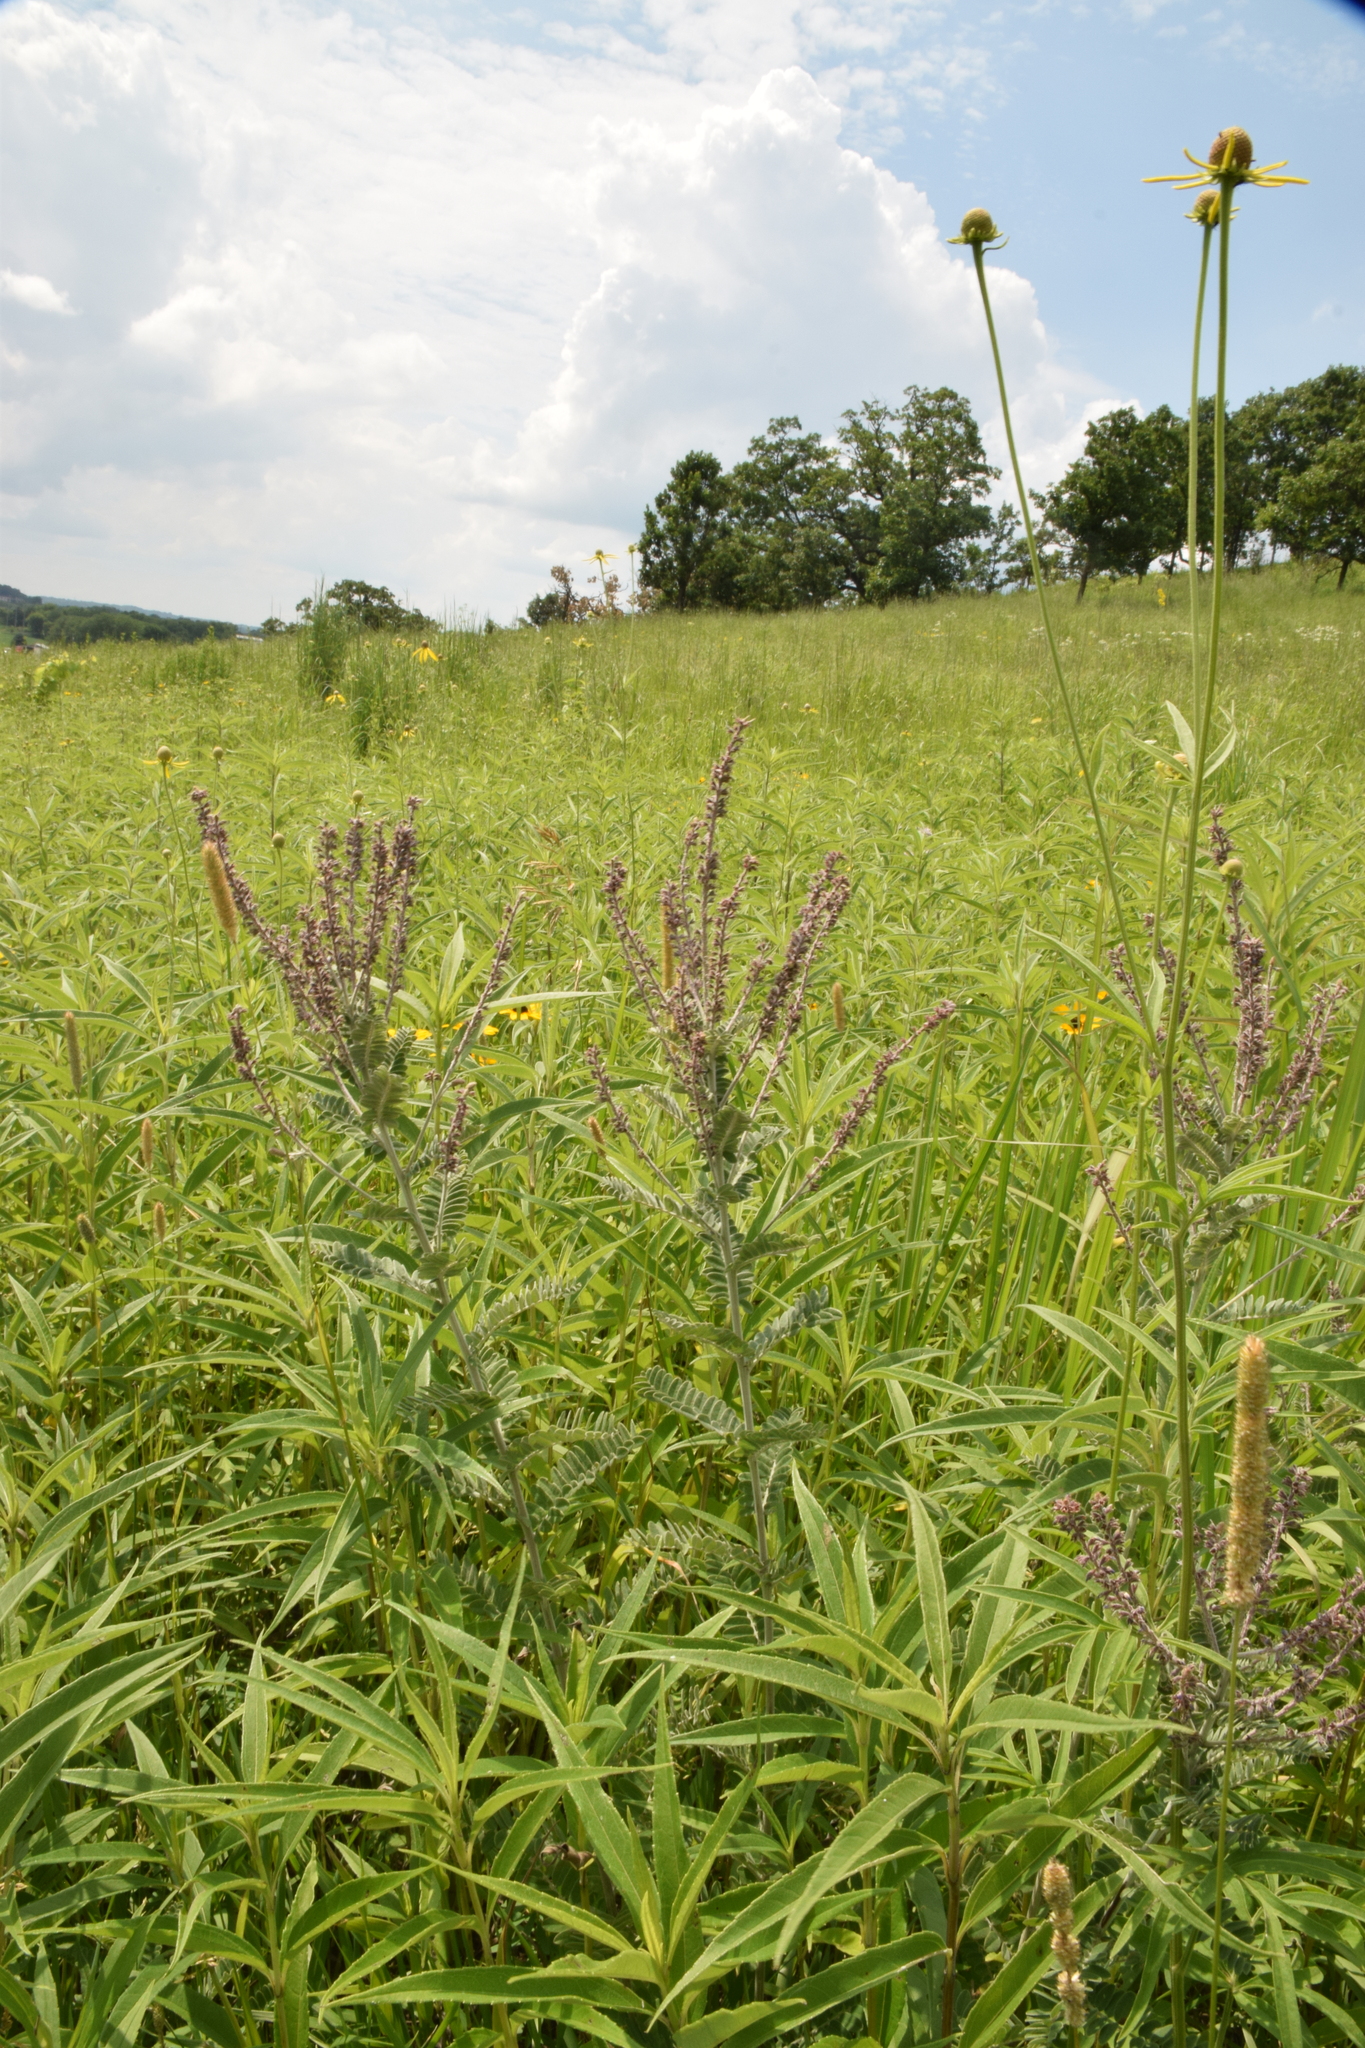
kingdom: Plantae
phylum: Tracheophyta
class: Magnoliopsida
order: Fabales
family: Fabaceae
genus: Amorpha
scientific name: Amorpha canescens
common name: Leadplant
